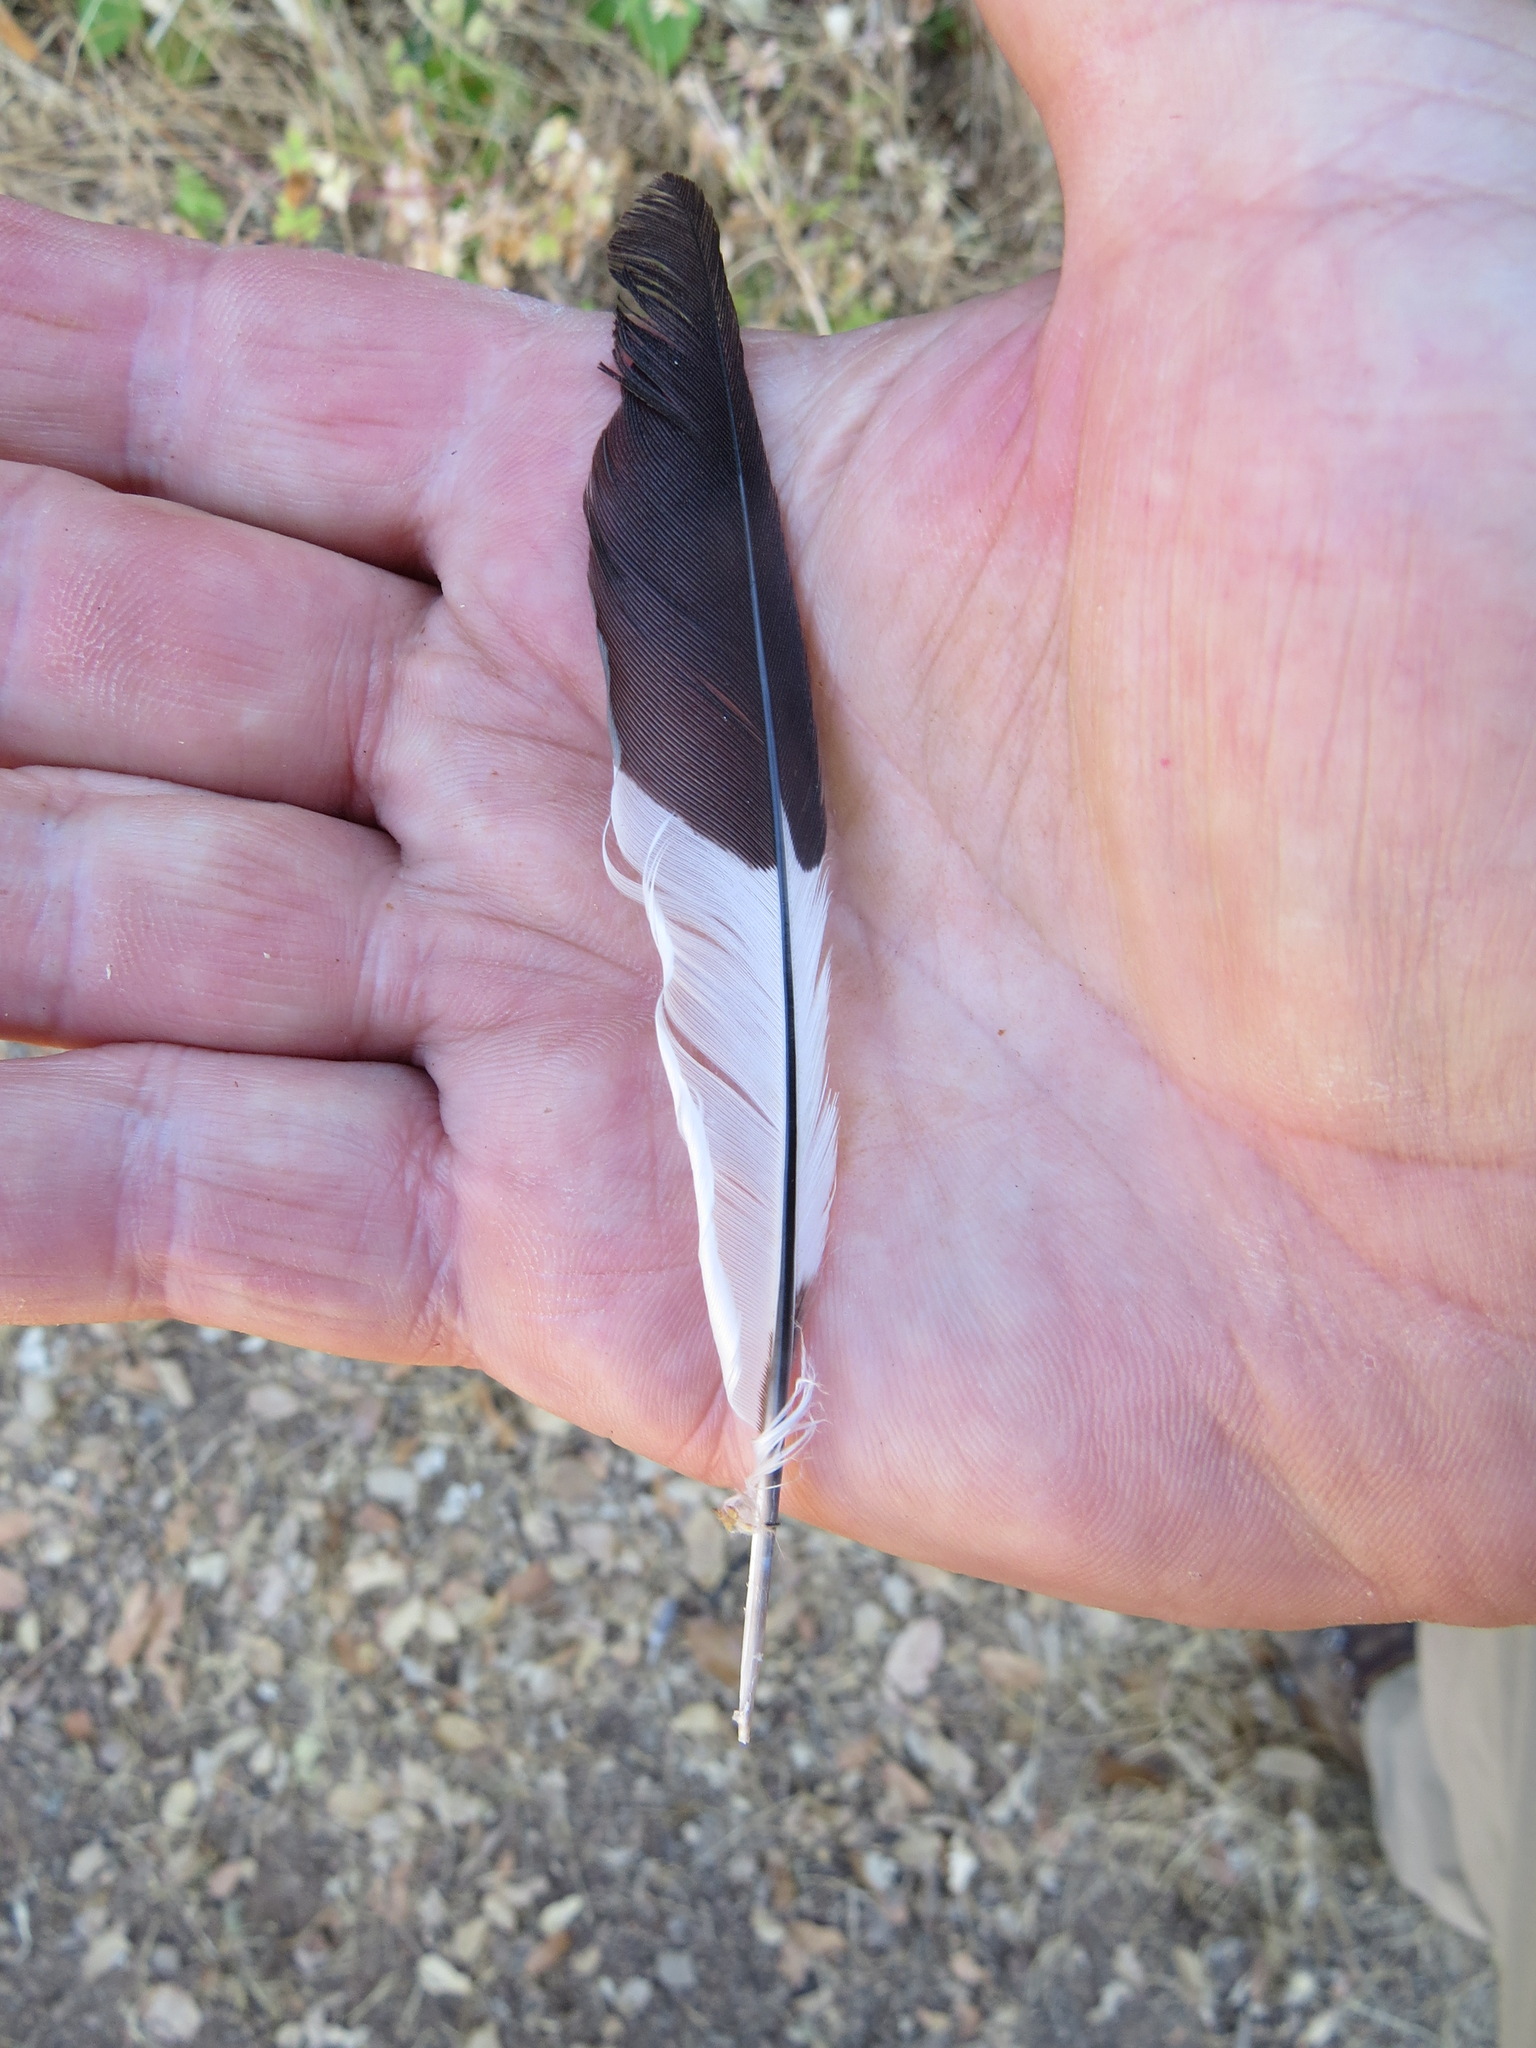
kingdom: Animalia
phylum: Chordata
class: Aves
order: Piciformes
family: Picidae
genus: Melanerpes
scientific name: Melanerpes formicivorus
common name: Acorn woodpecker
